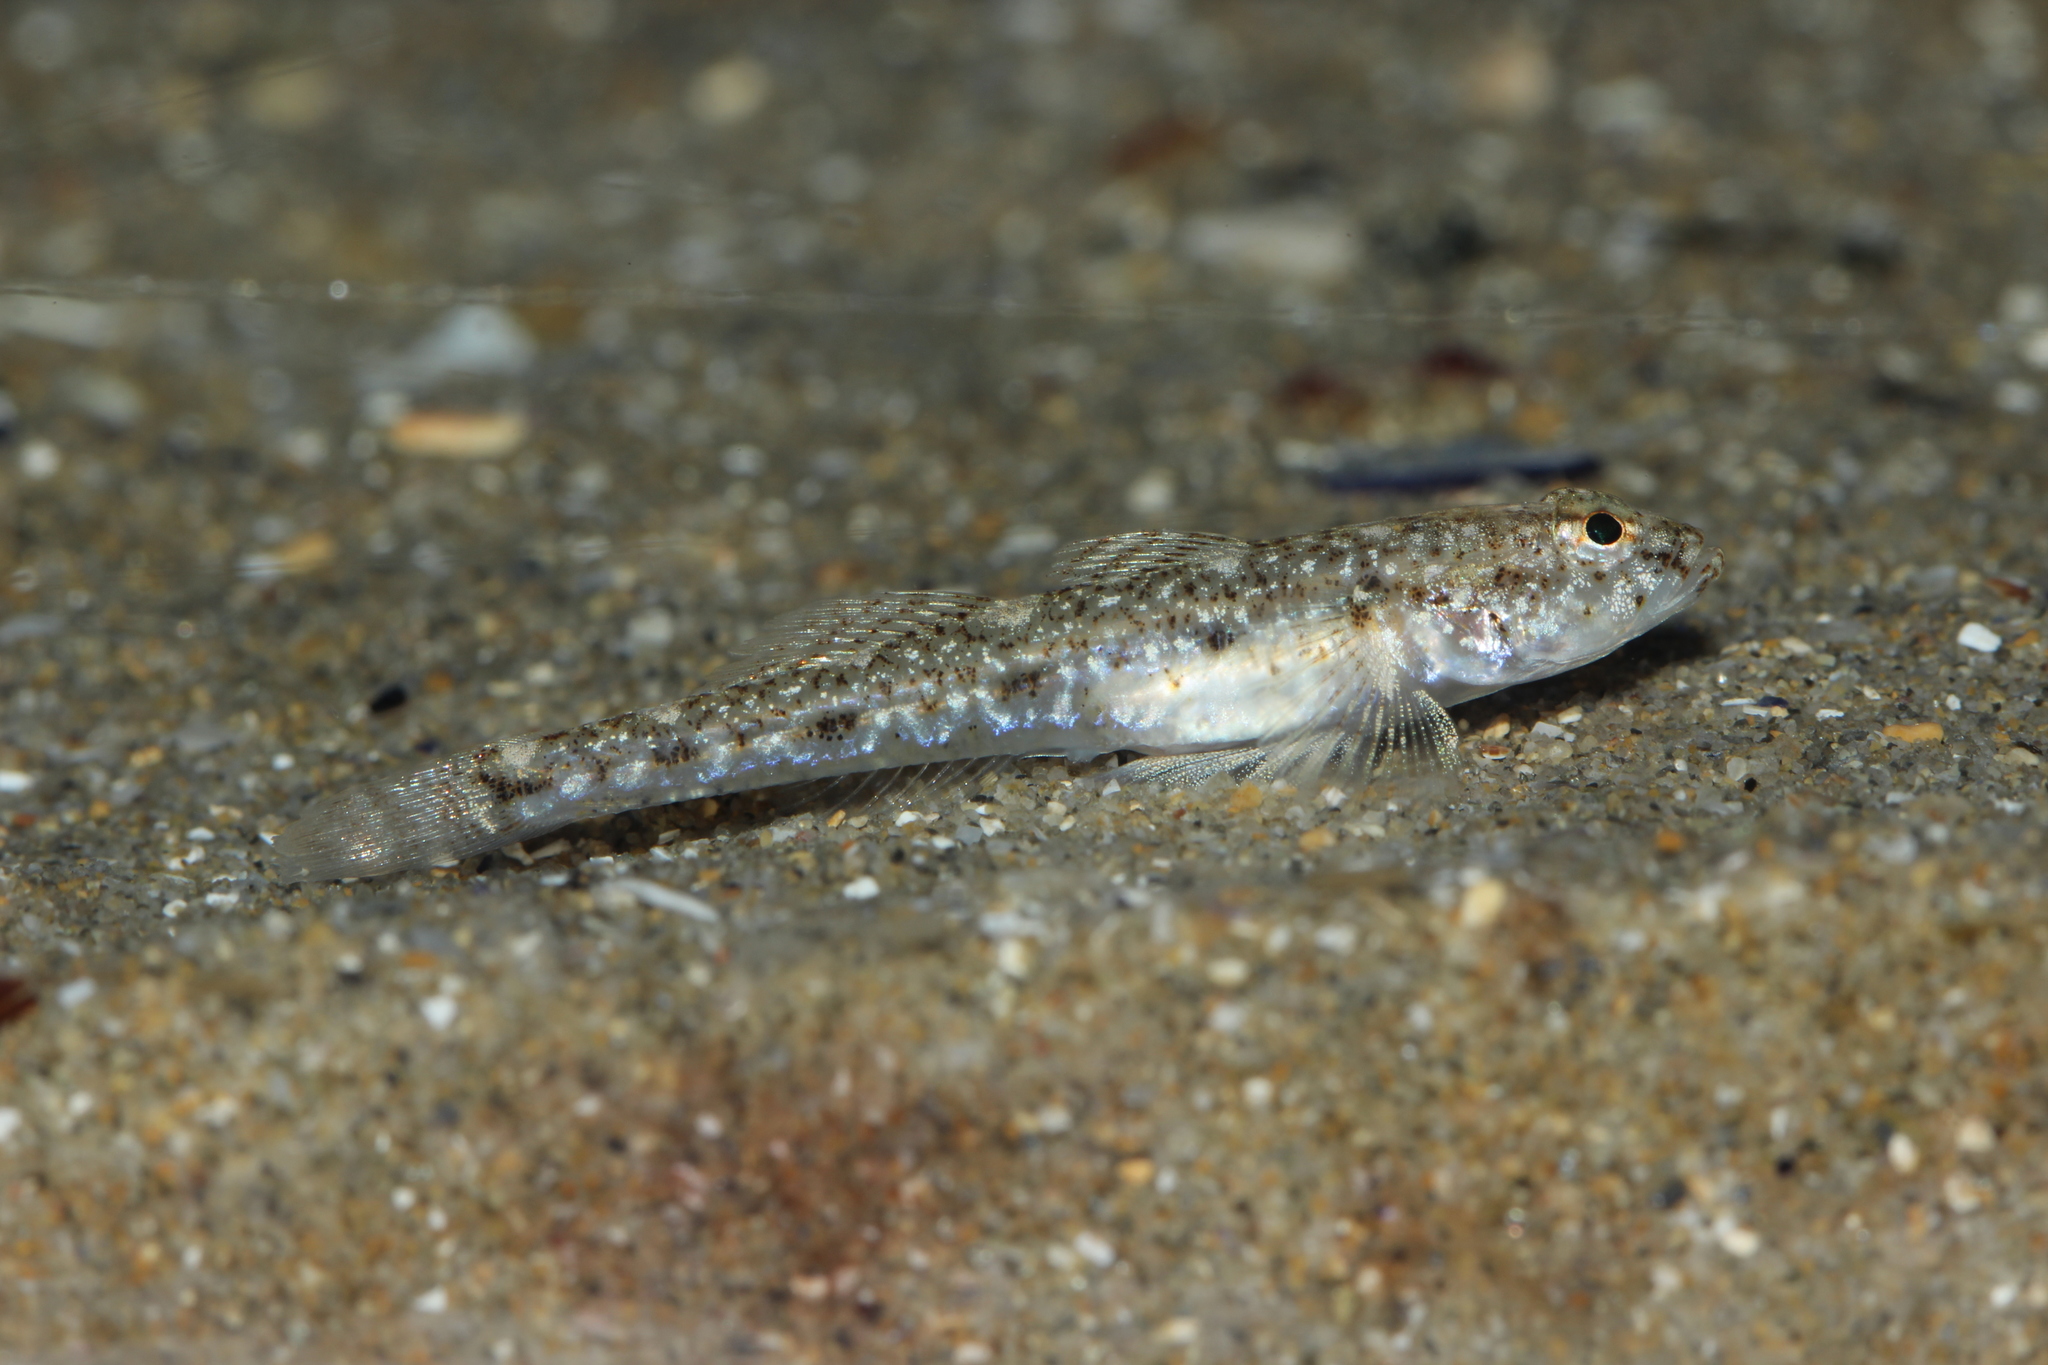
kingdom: Animalia
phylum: Chordata
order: Perciformes
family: Gobiidae
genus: Pomatoschistus
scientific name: Pomatoschistus marmoratus
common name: Marbled goby
